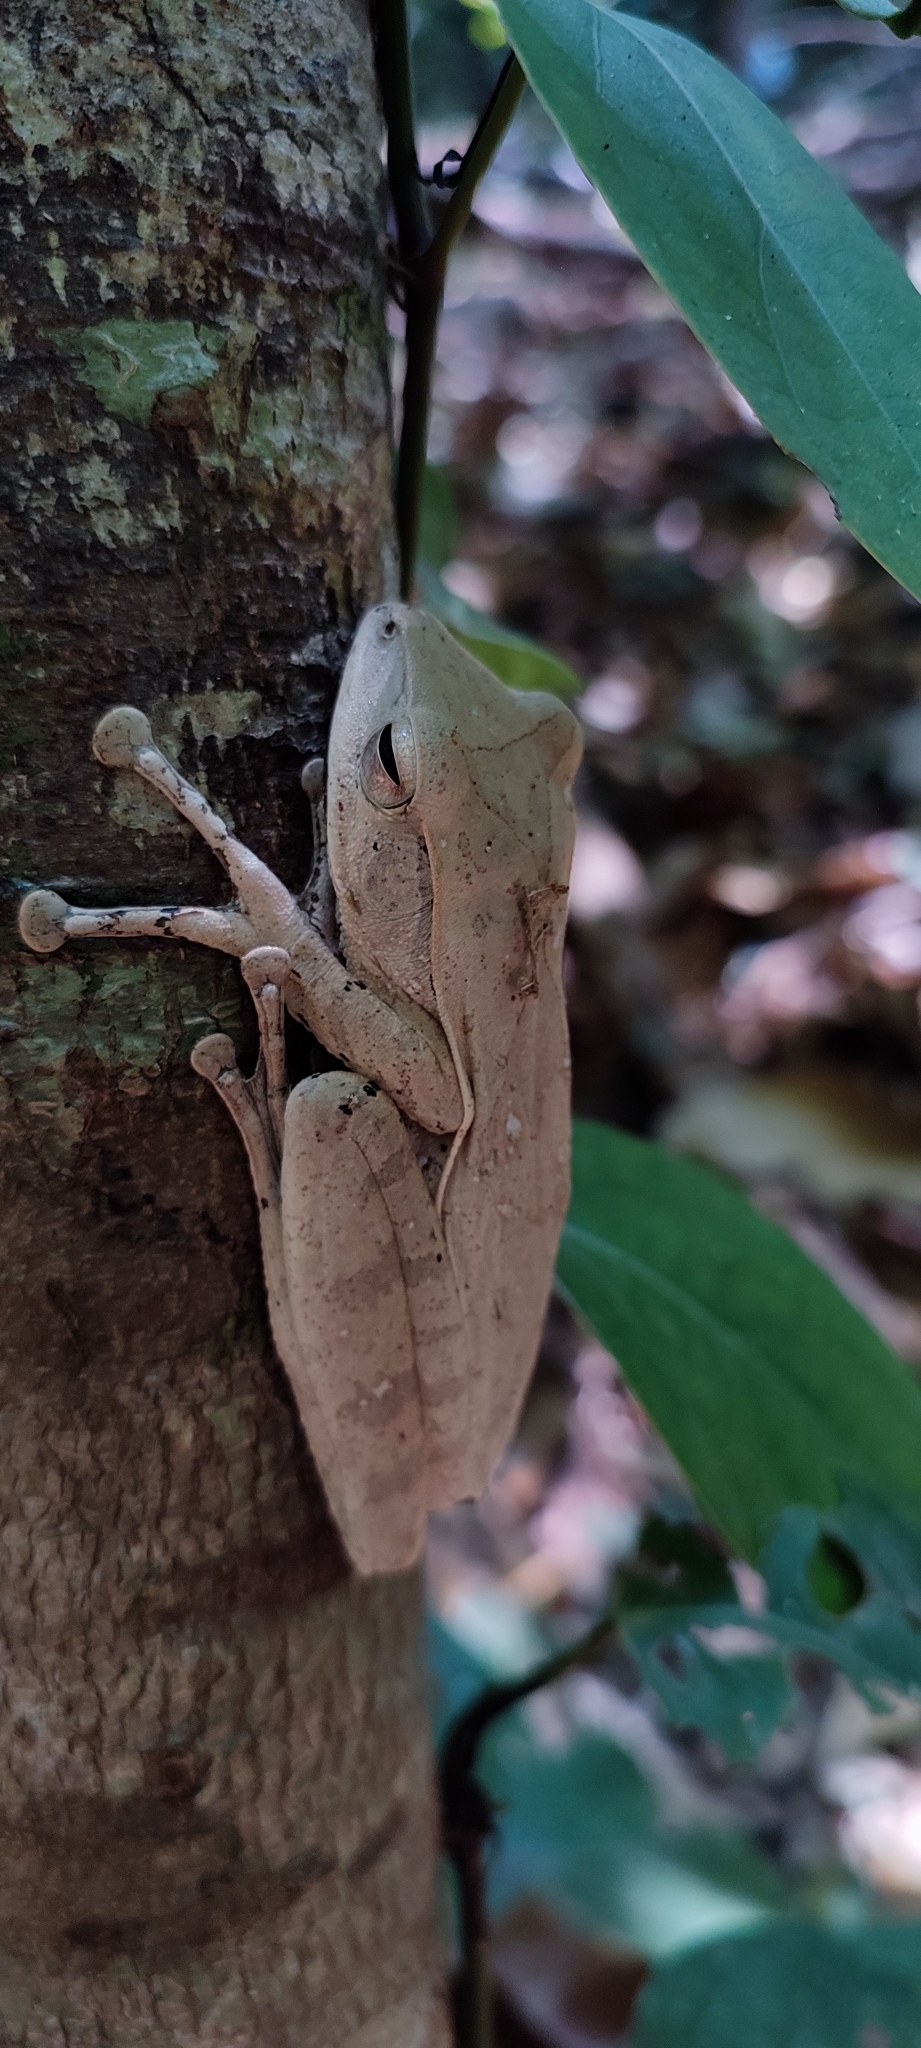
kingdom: Animalia
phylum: Chordata
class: Amphibia
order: Anura
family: Rhacophoridae
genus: Polypedates
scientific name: Polypedates occidentalis
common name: Charpa tree frog
